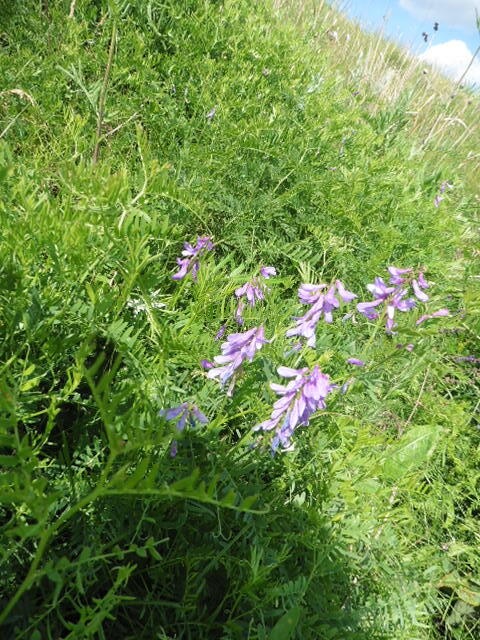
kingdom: Plantae
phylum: Tracheophyta
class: Magnoliopsida
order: Fabales
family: Fabaceae
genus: Vicia
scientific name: Vicia tenuifolia
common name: Fine-leaved vetch
